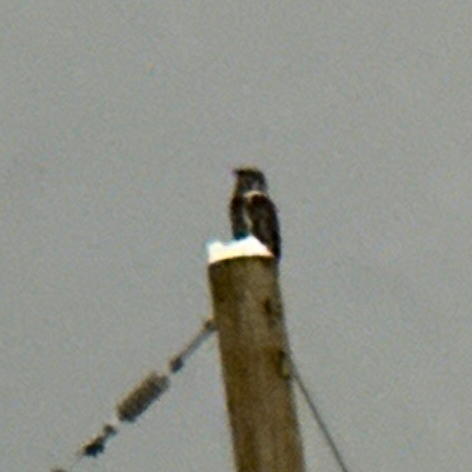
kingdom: Animalia
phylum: Chordata
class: Aves
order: Strigiformes
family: Strigidae
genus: Bubo
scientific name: Bubo virginianus
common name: Great horned owl
